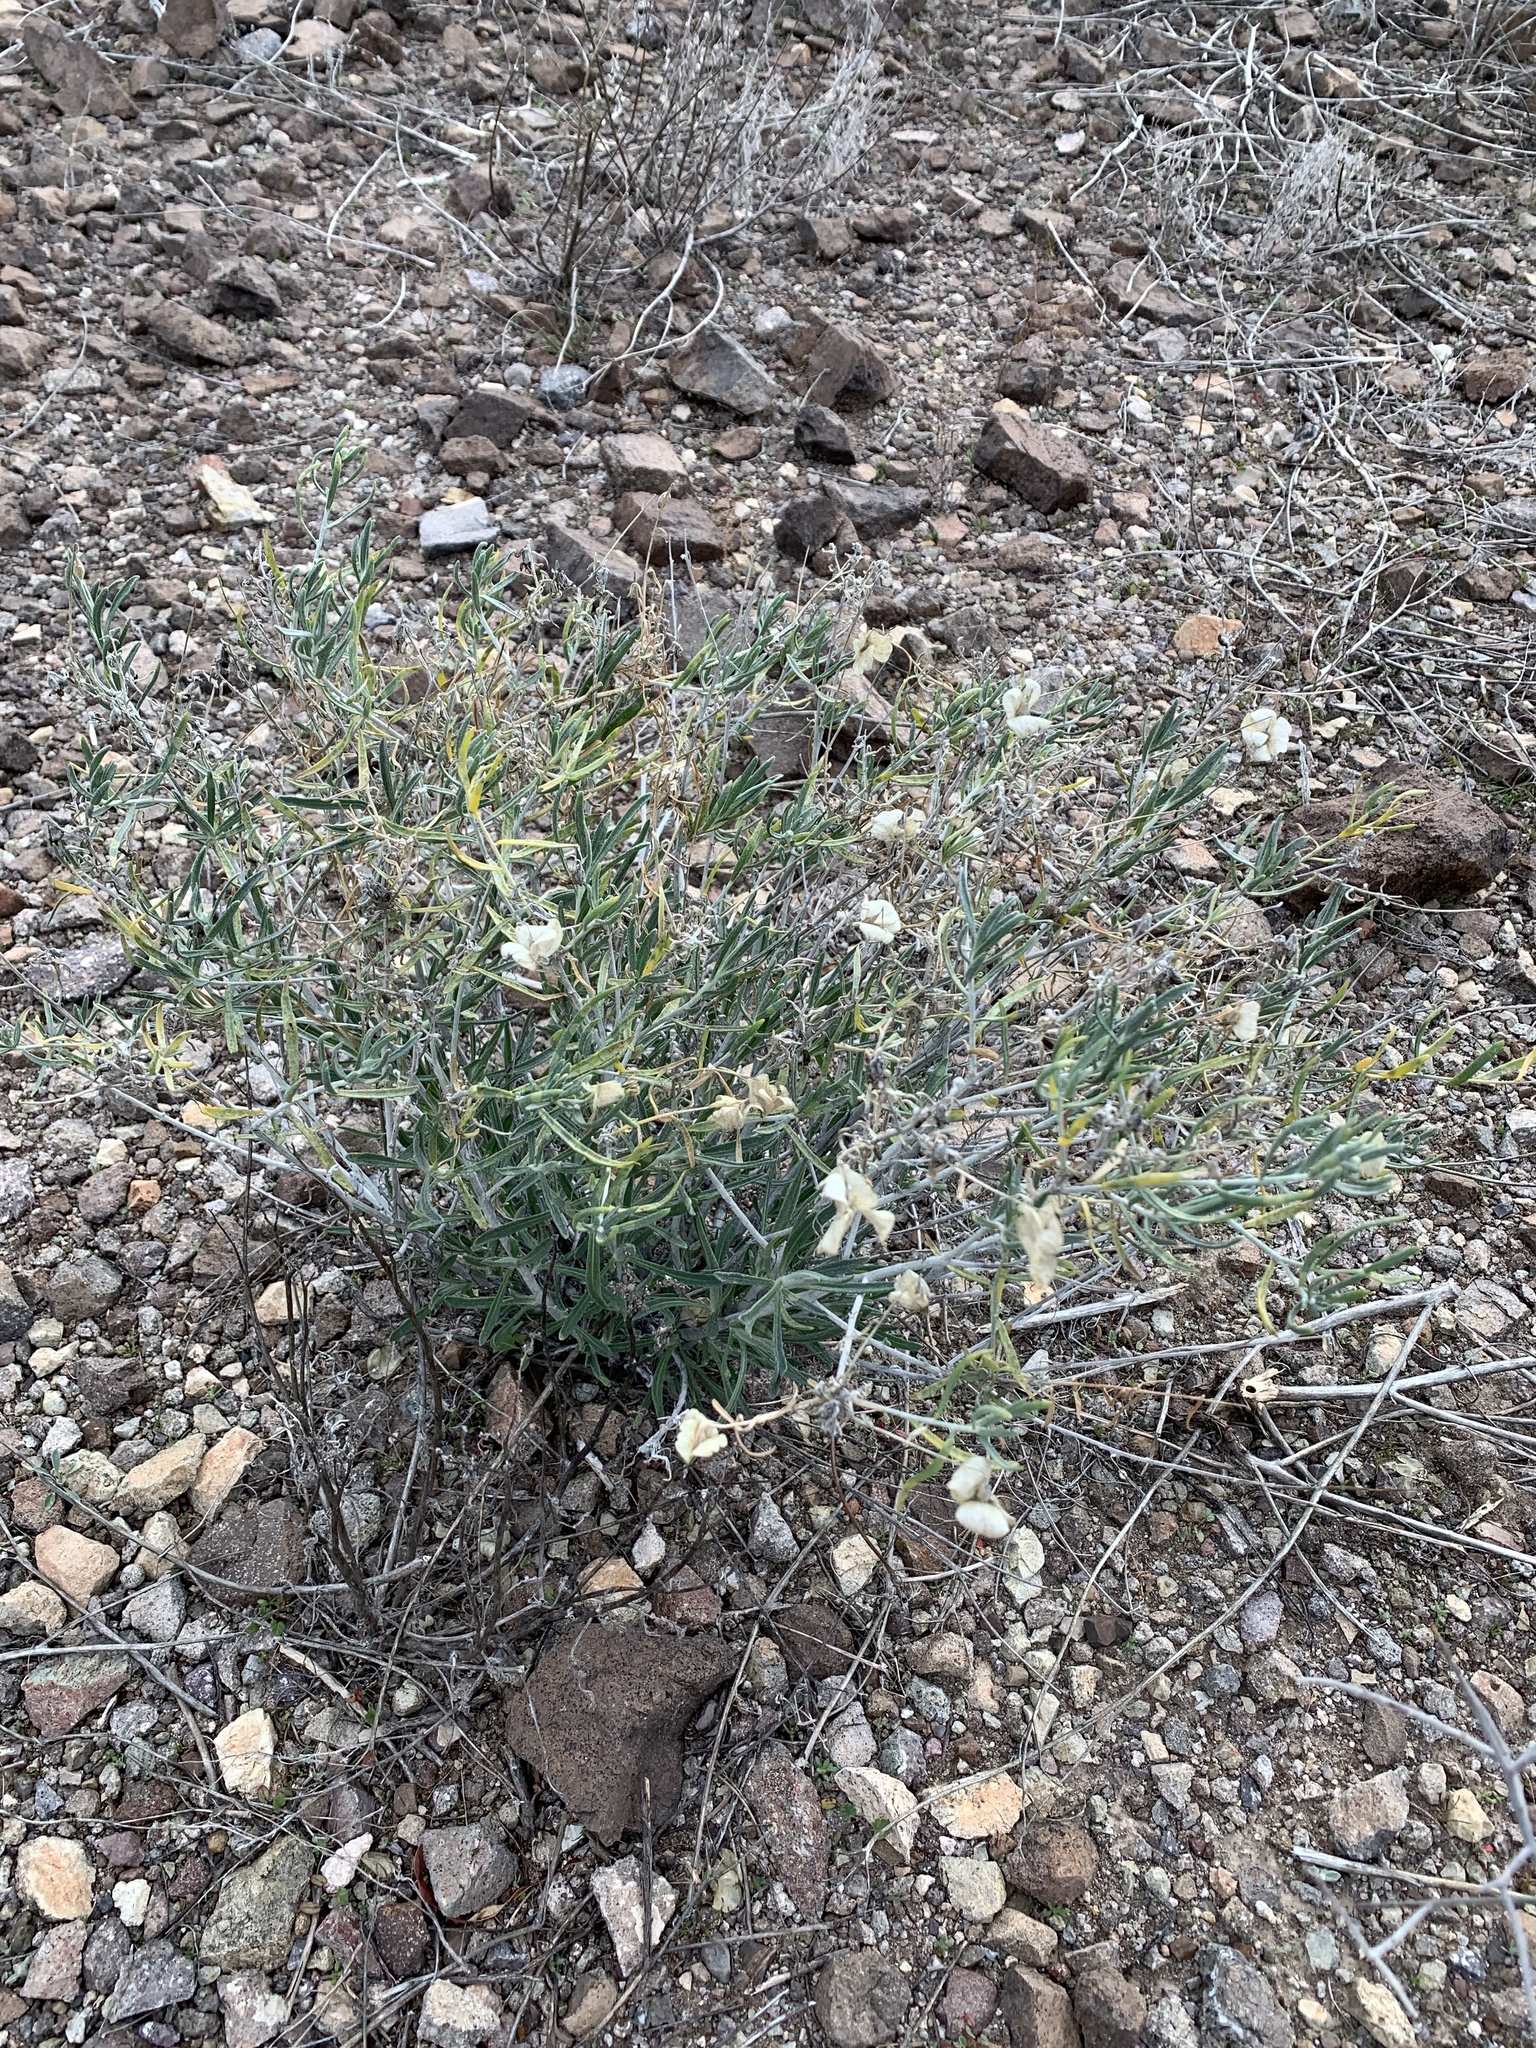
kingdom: Plantae
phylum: Tracheophyta
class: Magnoliopsida
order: Asterales
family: Asteraceae
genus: Psilostrophe
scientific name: Psilostrophe cooperi
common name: White-stem paper-flower
